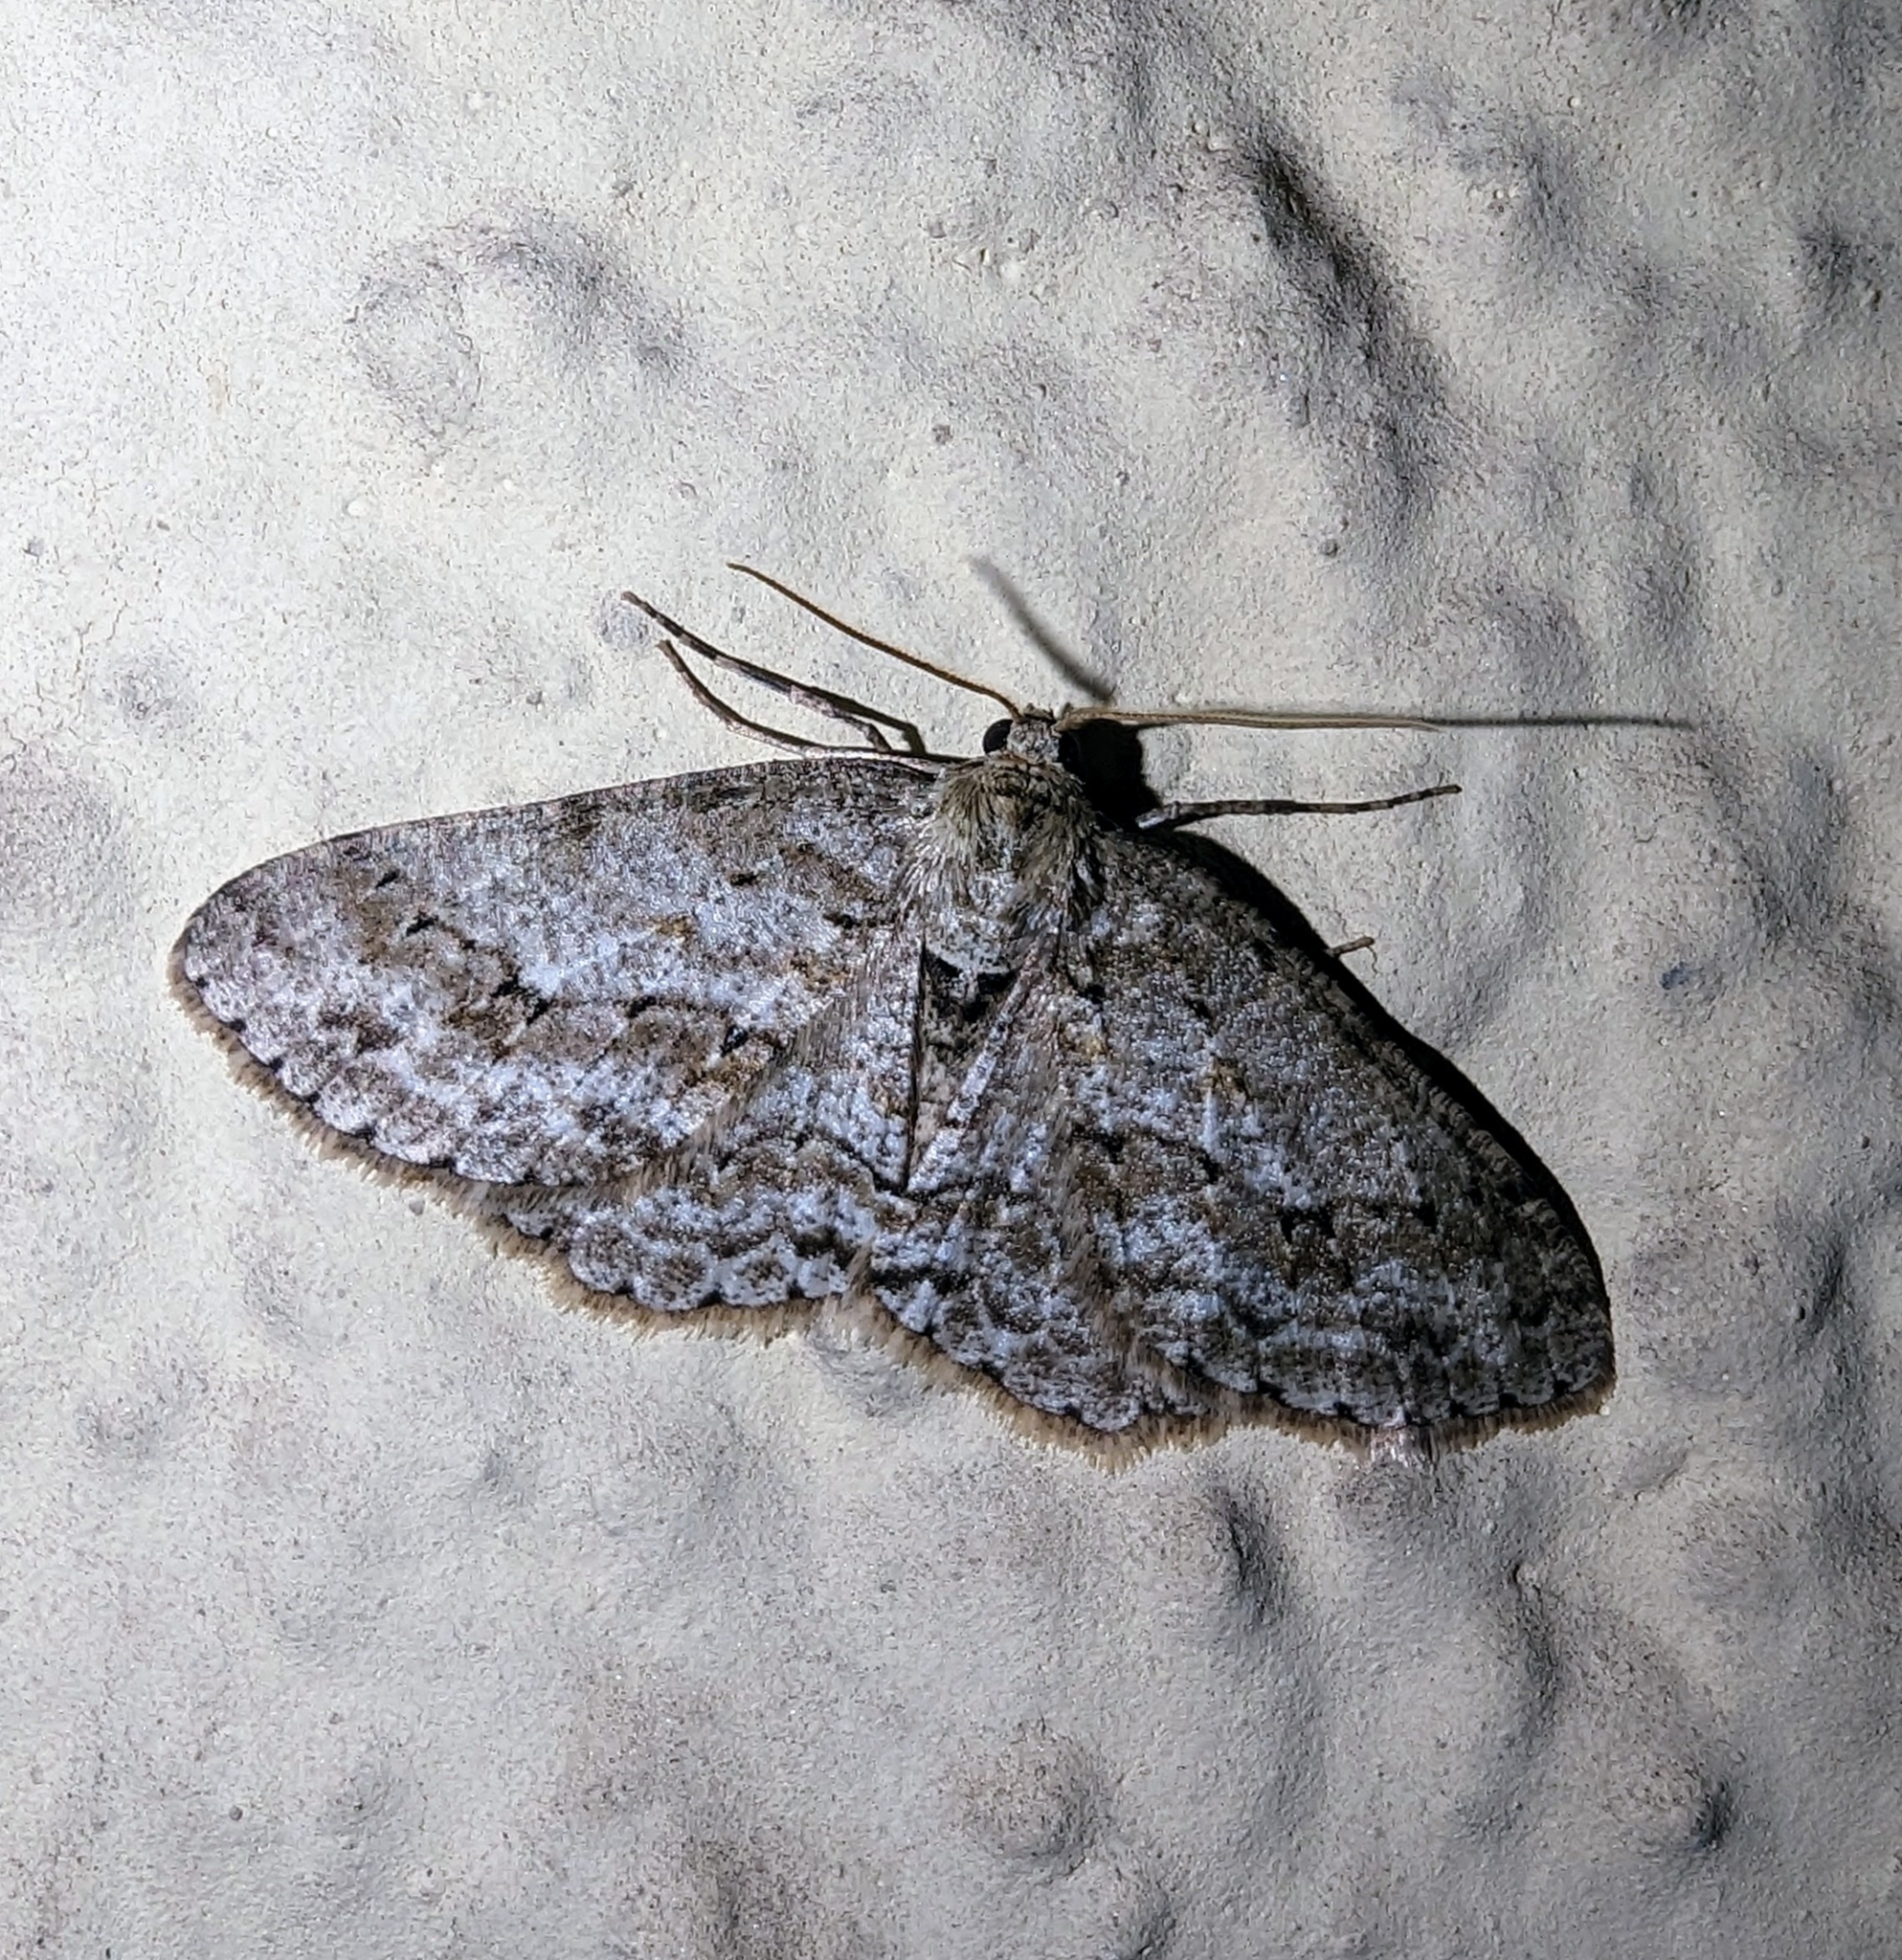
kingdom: Animalia
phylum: Arthropoda
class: Insecta
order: Lepidoptera
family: Geometridae
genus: Ectropis
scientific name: Ectropis crepuscularia
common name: Engrailed
